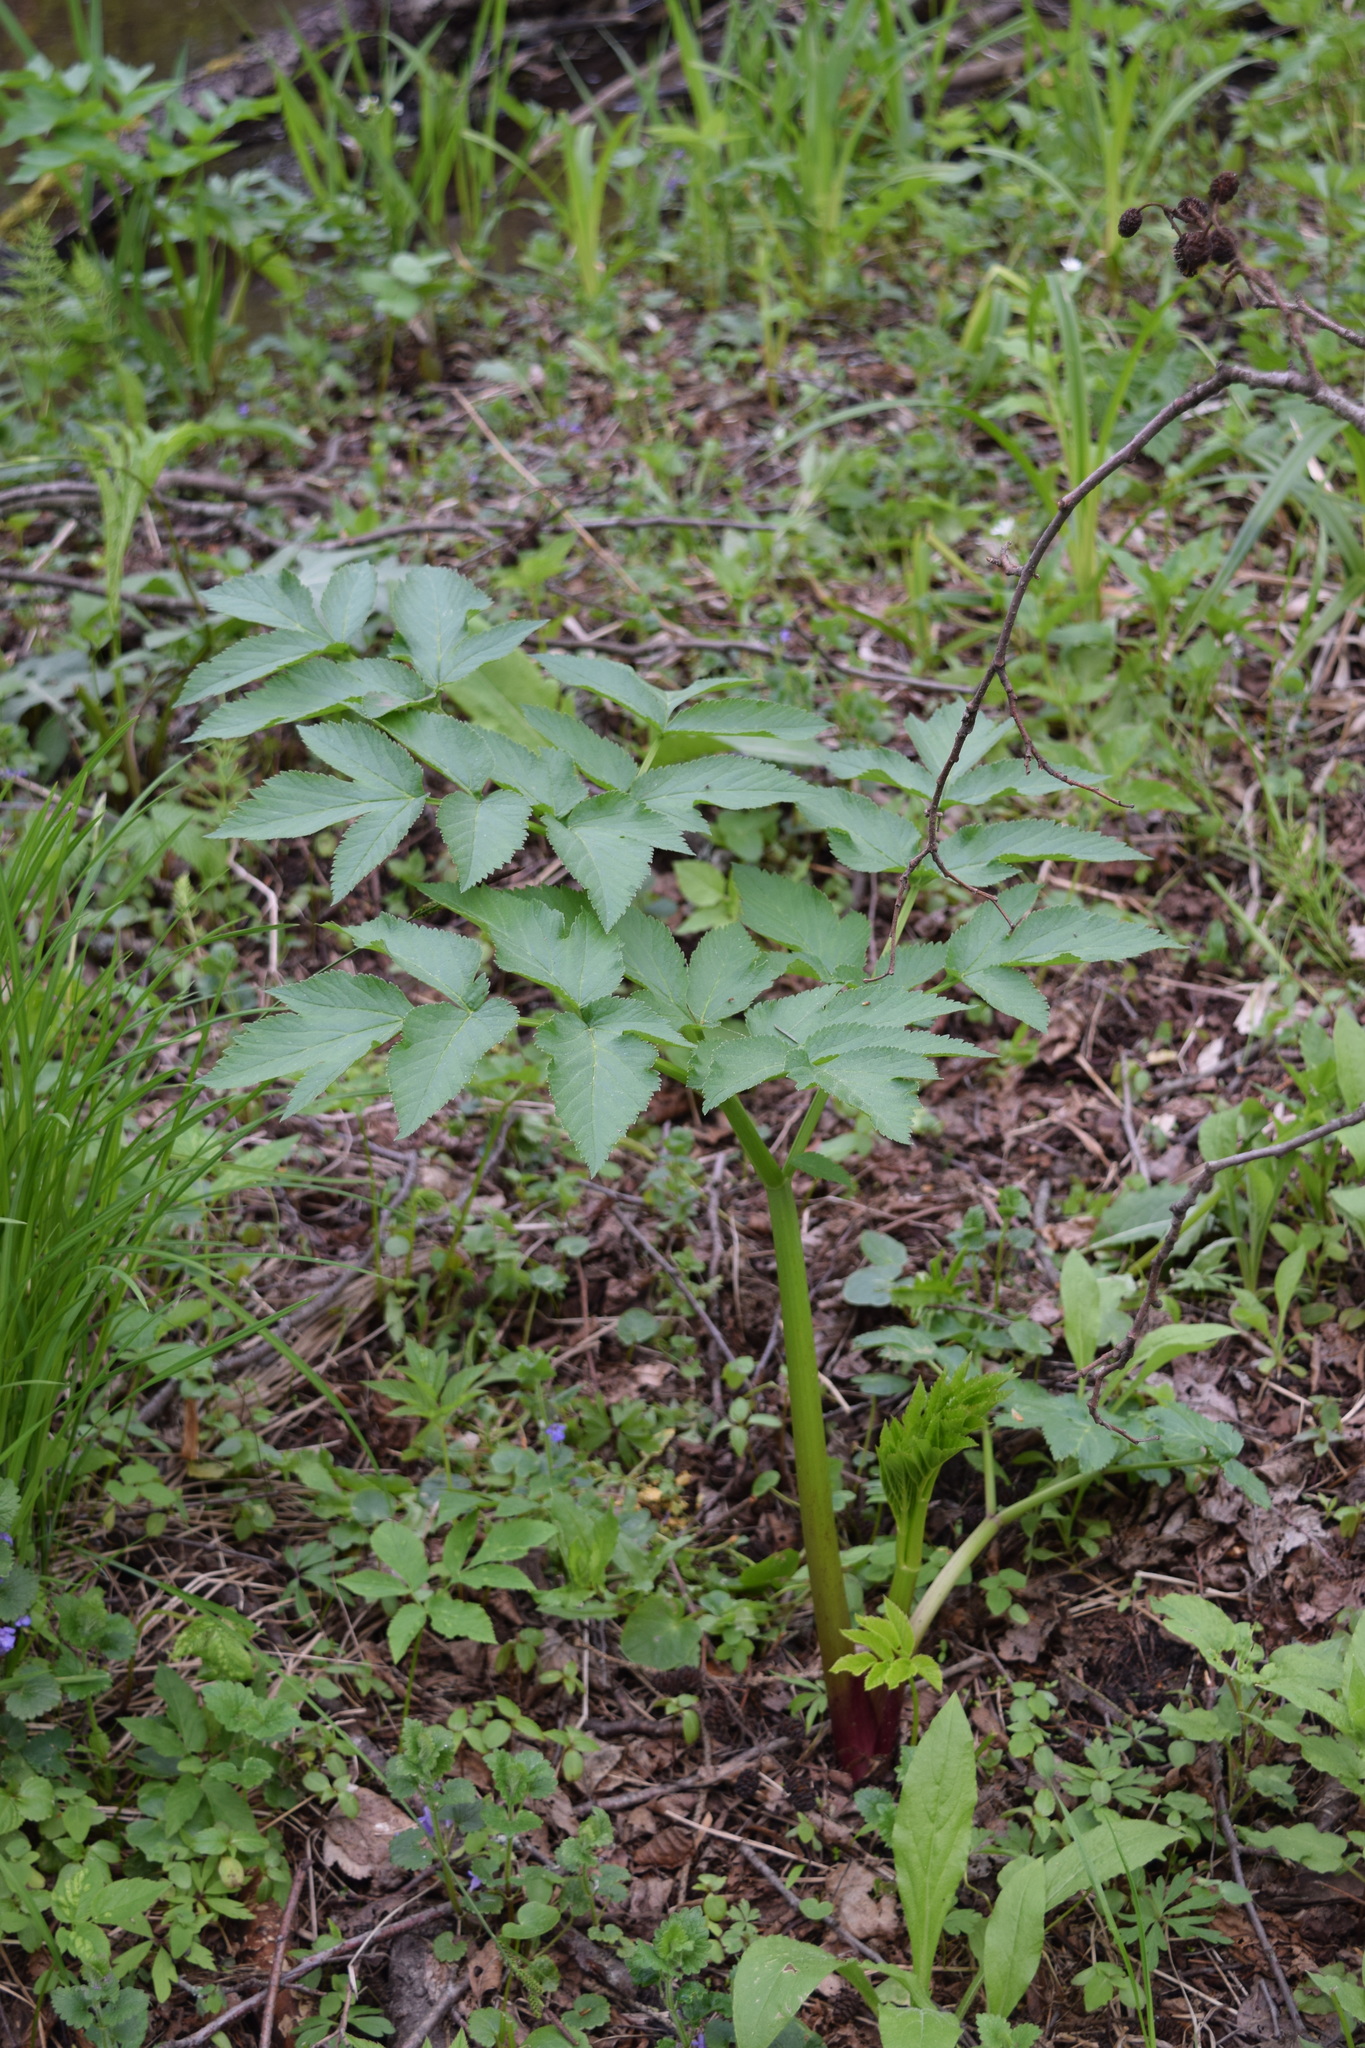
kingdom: Plantae
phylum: Tracheophyta
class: Magnoliopsida
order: Apiales
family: Apiaceae
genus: Angelica
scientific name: Angelica archangelica
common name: Garden angelica
